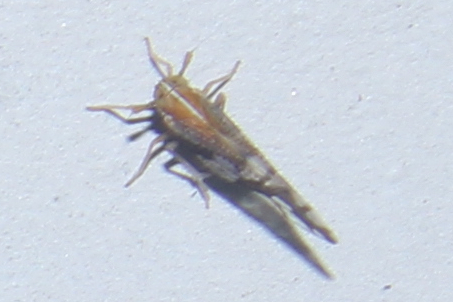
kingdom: Animalia
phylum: Arthropoda
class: Insecta
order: Hemiptera
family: Delphacidae
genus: Liburniella
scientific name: Liburniella ornata
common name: Ornate planthopper
